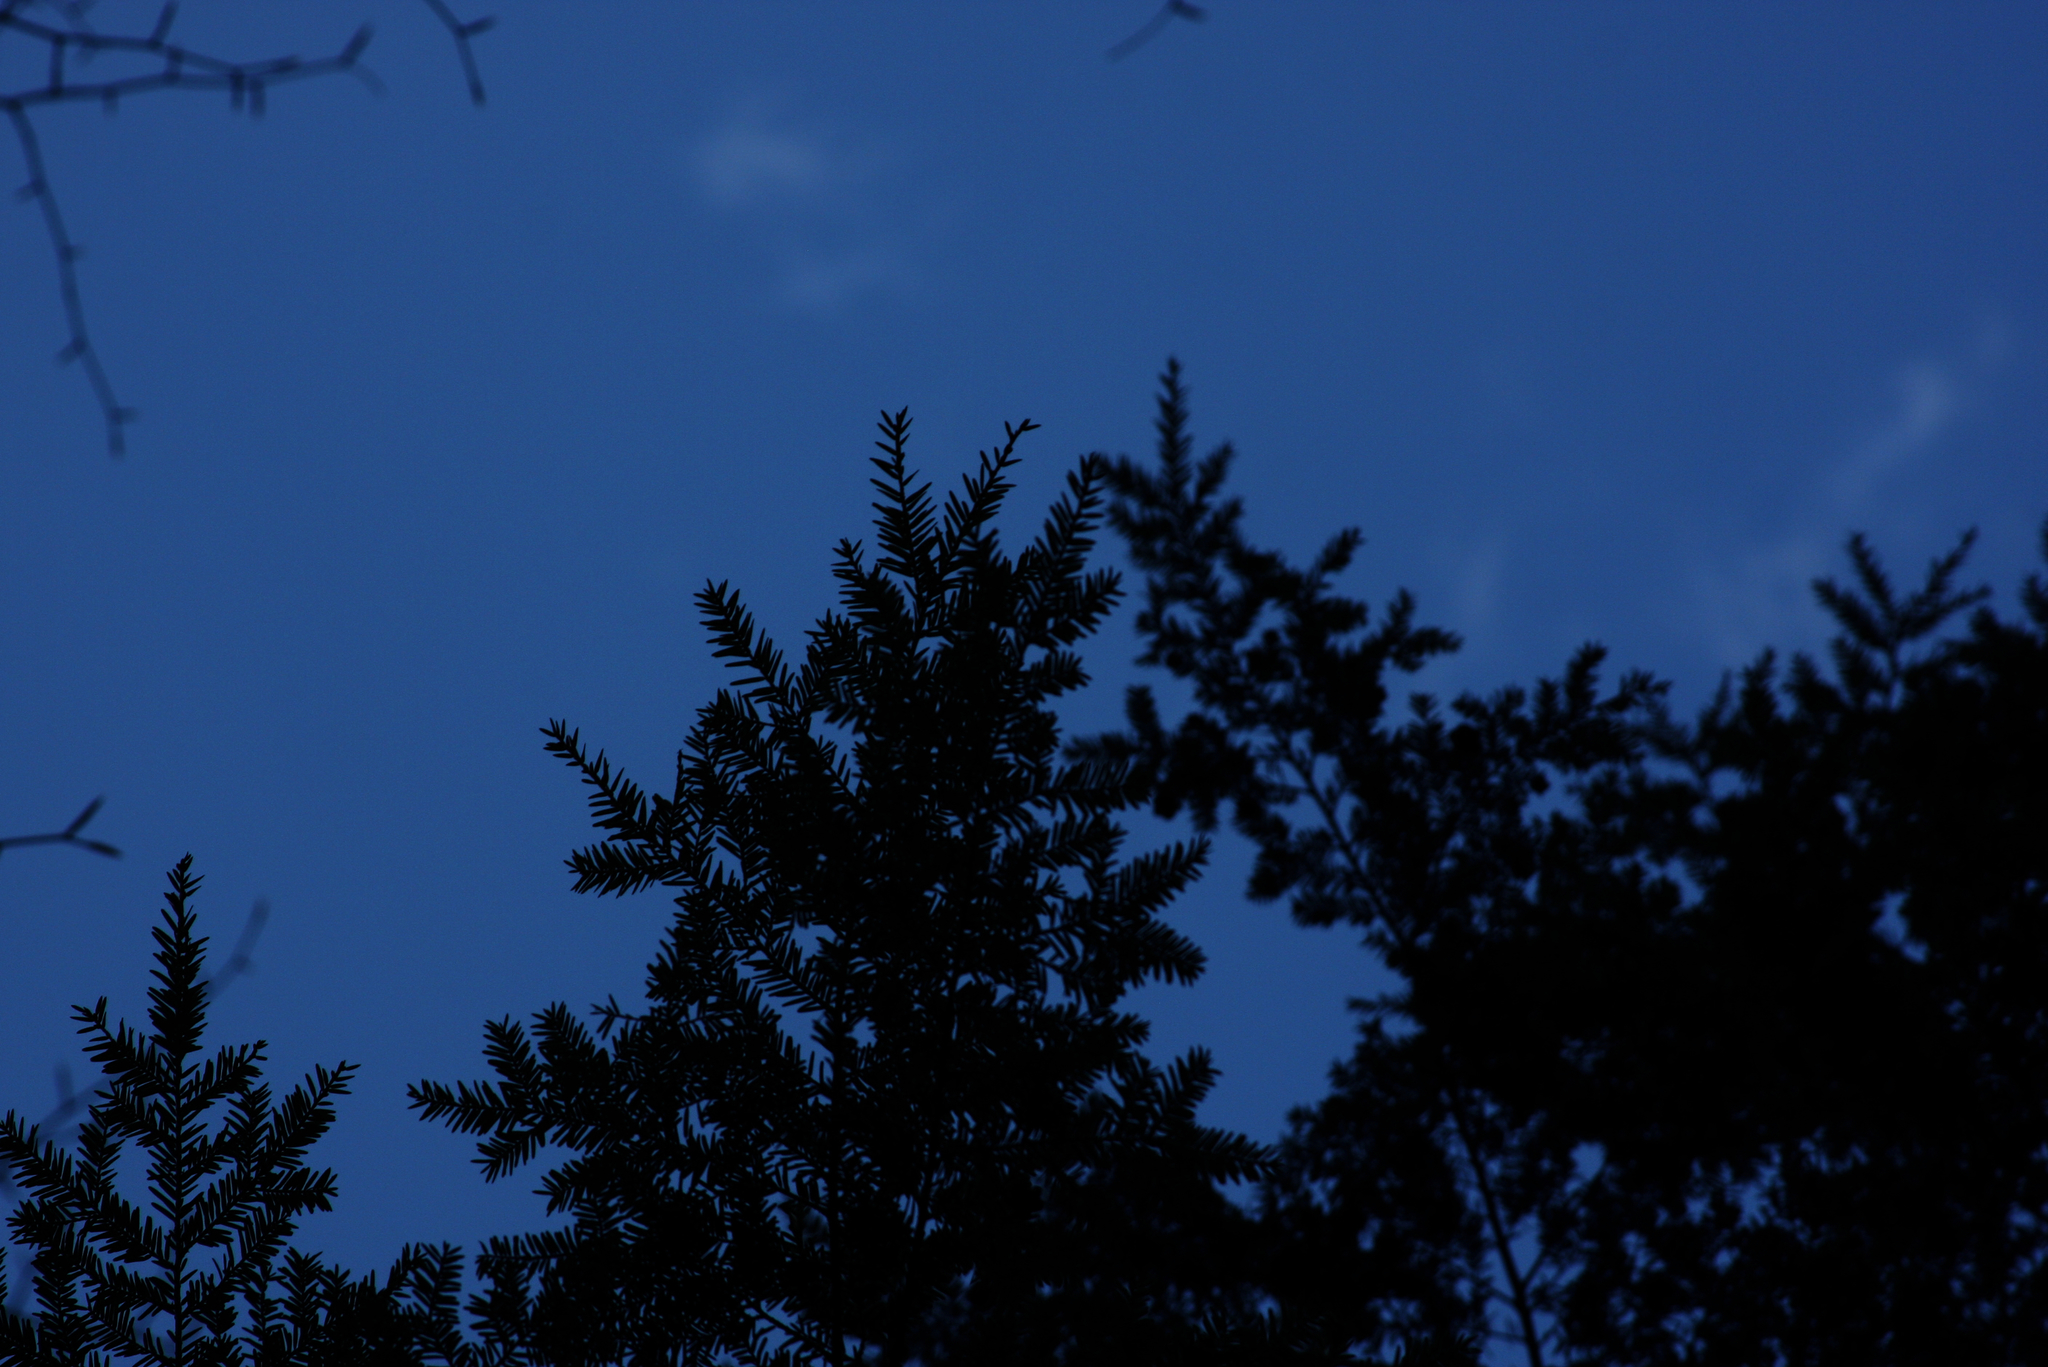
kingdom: Plantae
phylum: Tracheophyta
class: Pinopsida
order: Pinales
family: Pinaceae
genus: Tsuga
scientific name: Tsuga canadensis
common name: Eastern hemlock
